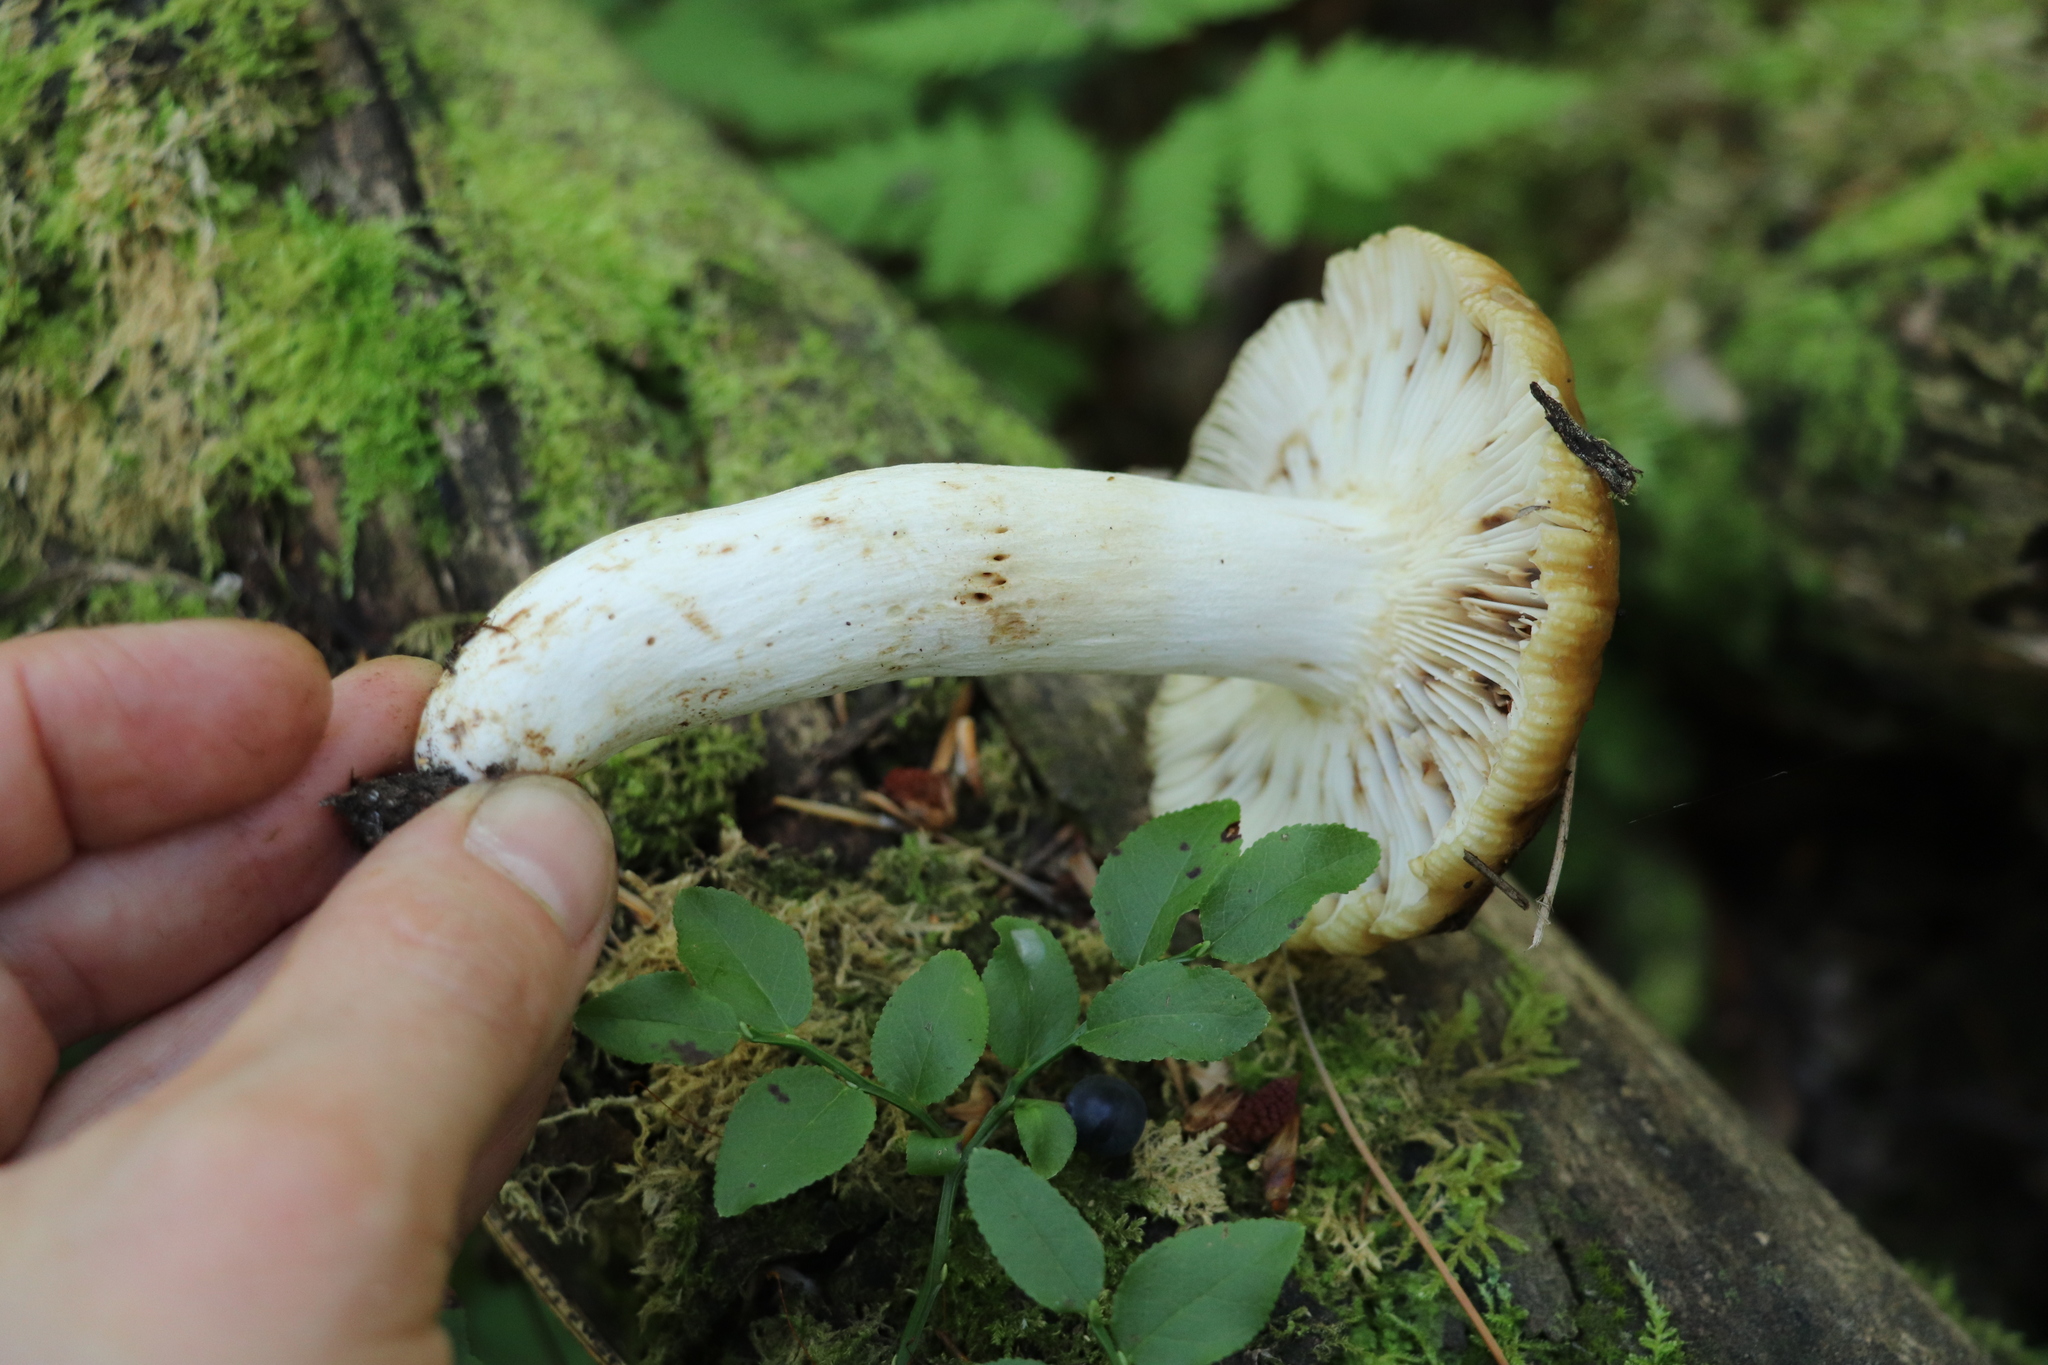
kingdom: Fungi
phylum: Basidiomycota
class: Agaricomycetes
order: Russulales
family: Russulaceae
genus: Russula
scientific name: Russula foetens
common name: Foetid russula
